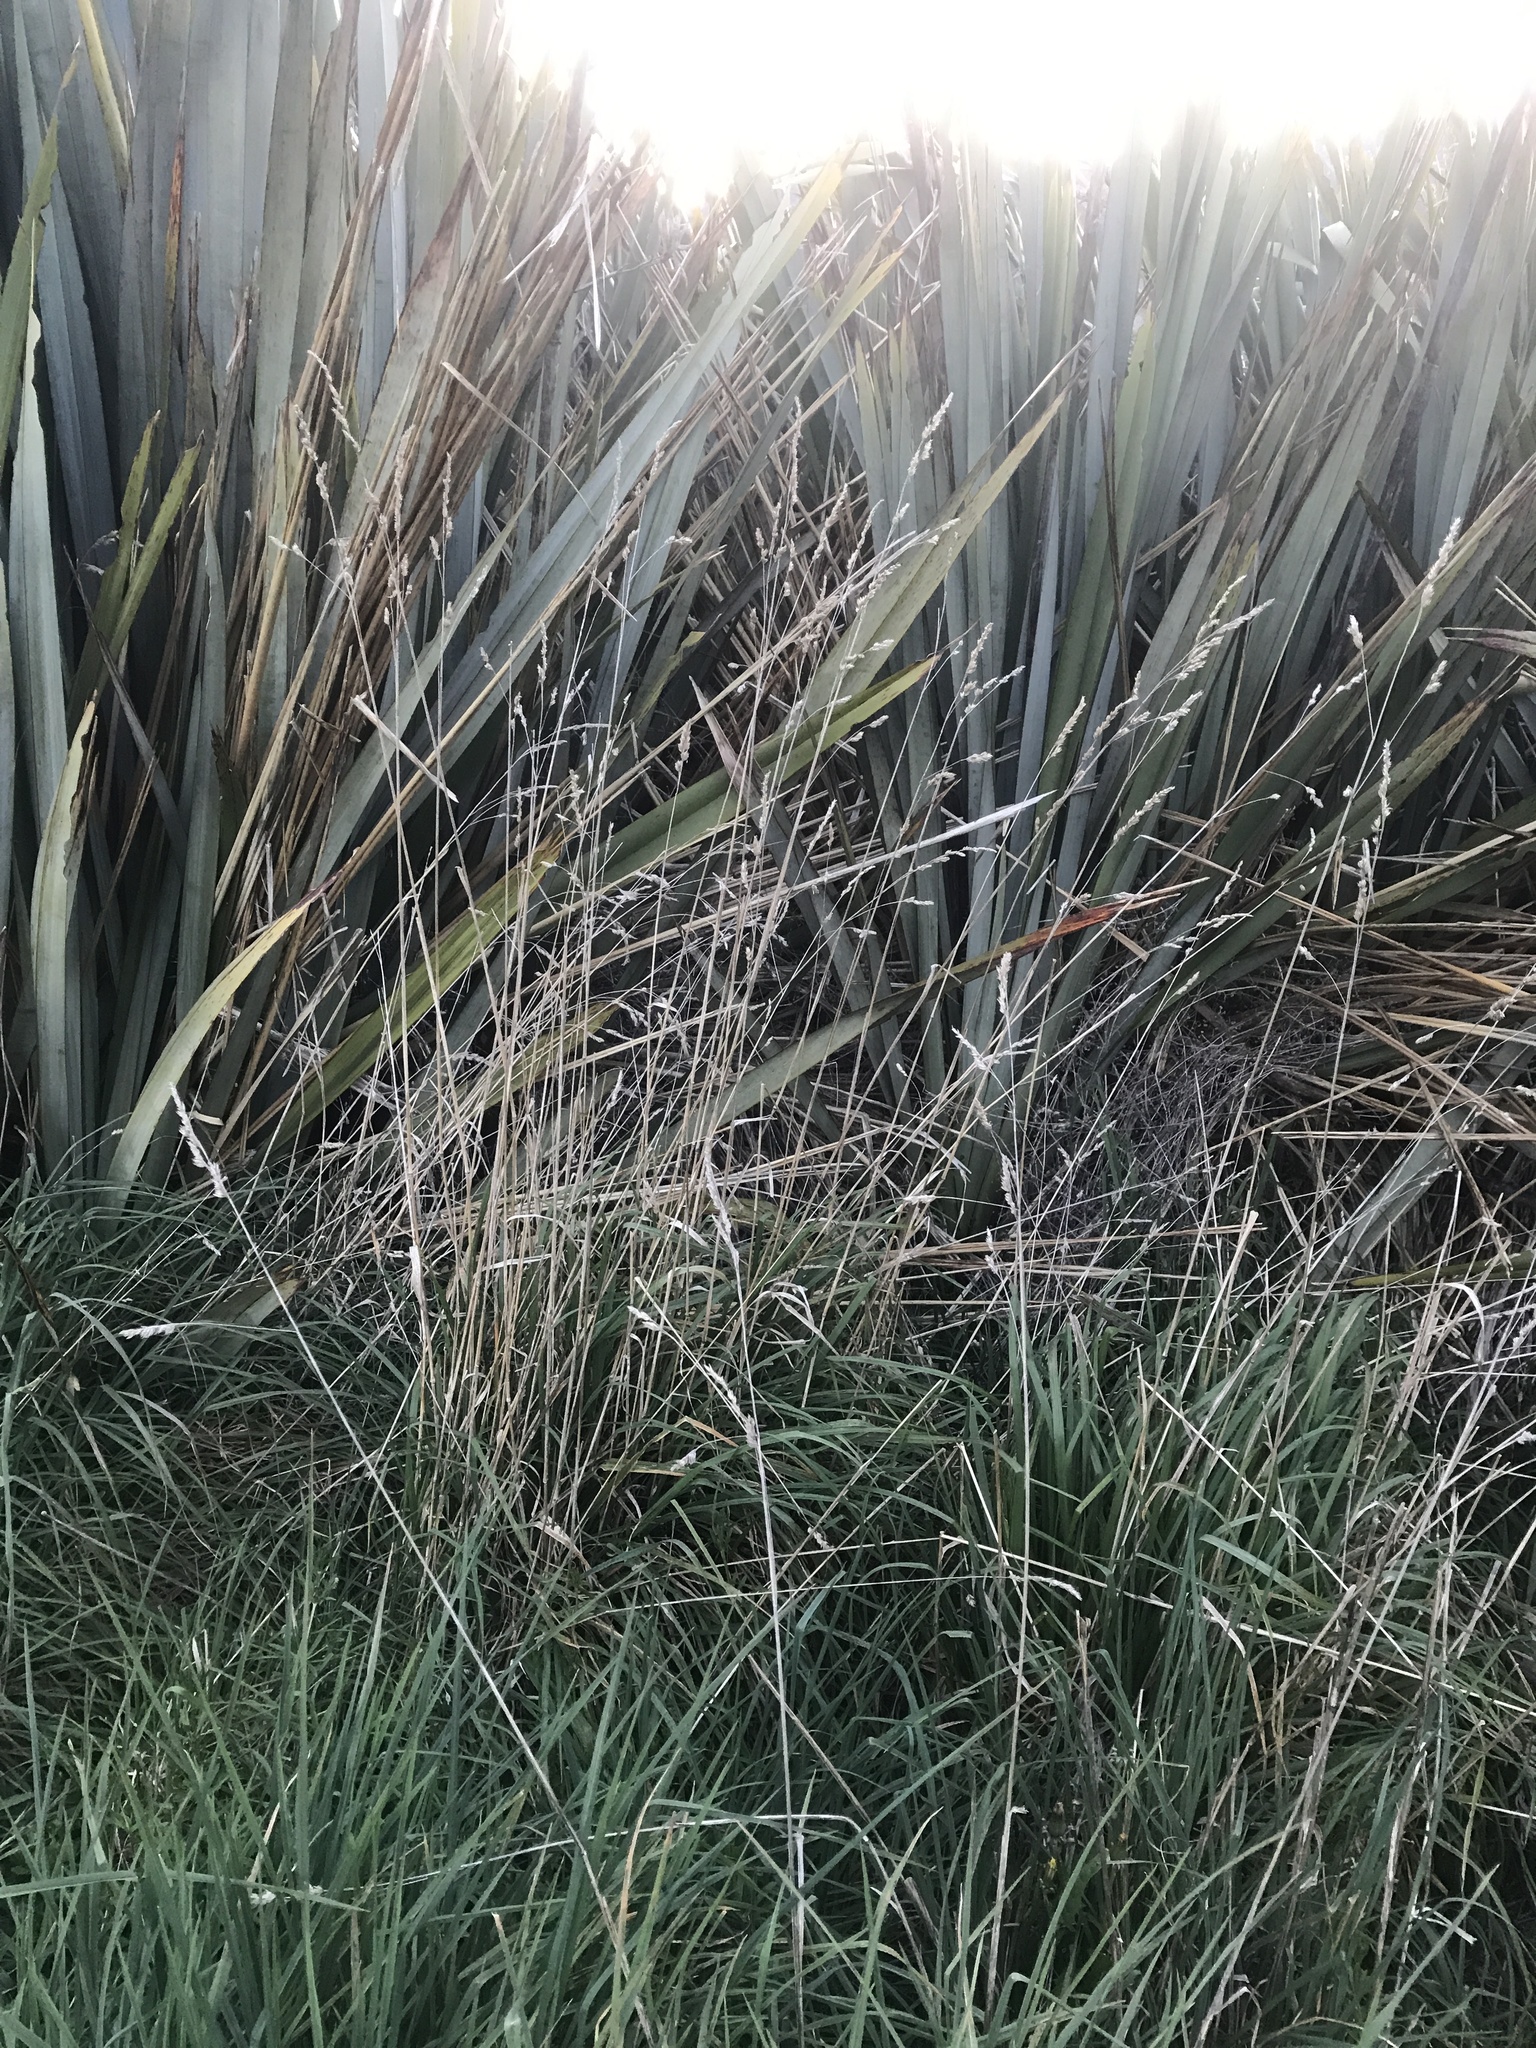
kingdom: Plantae
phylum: Tracheophyta
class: Liliopsida
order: Poales
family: Poaceae
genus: Dactylis
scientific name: Dactylis glomerata
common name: Orchardgrass
